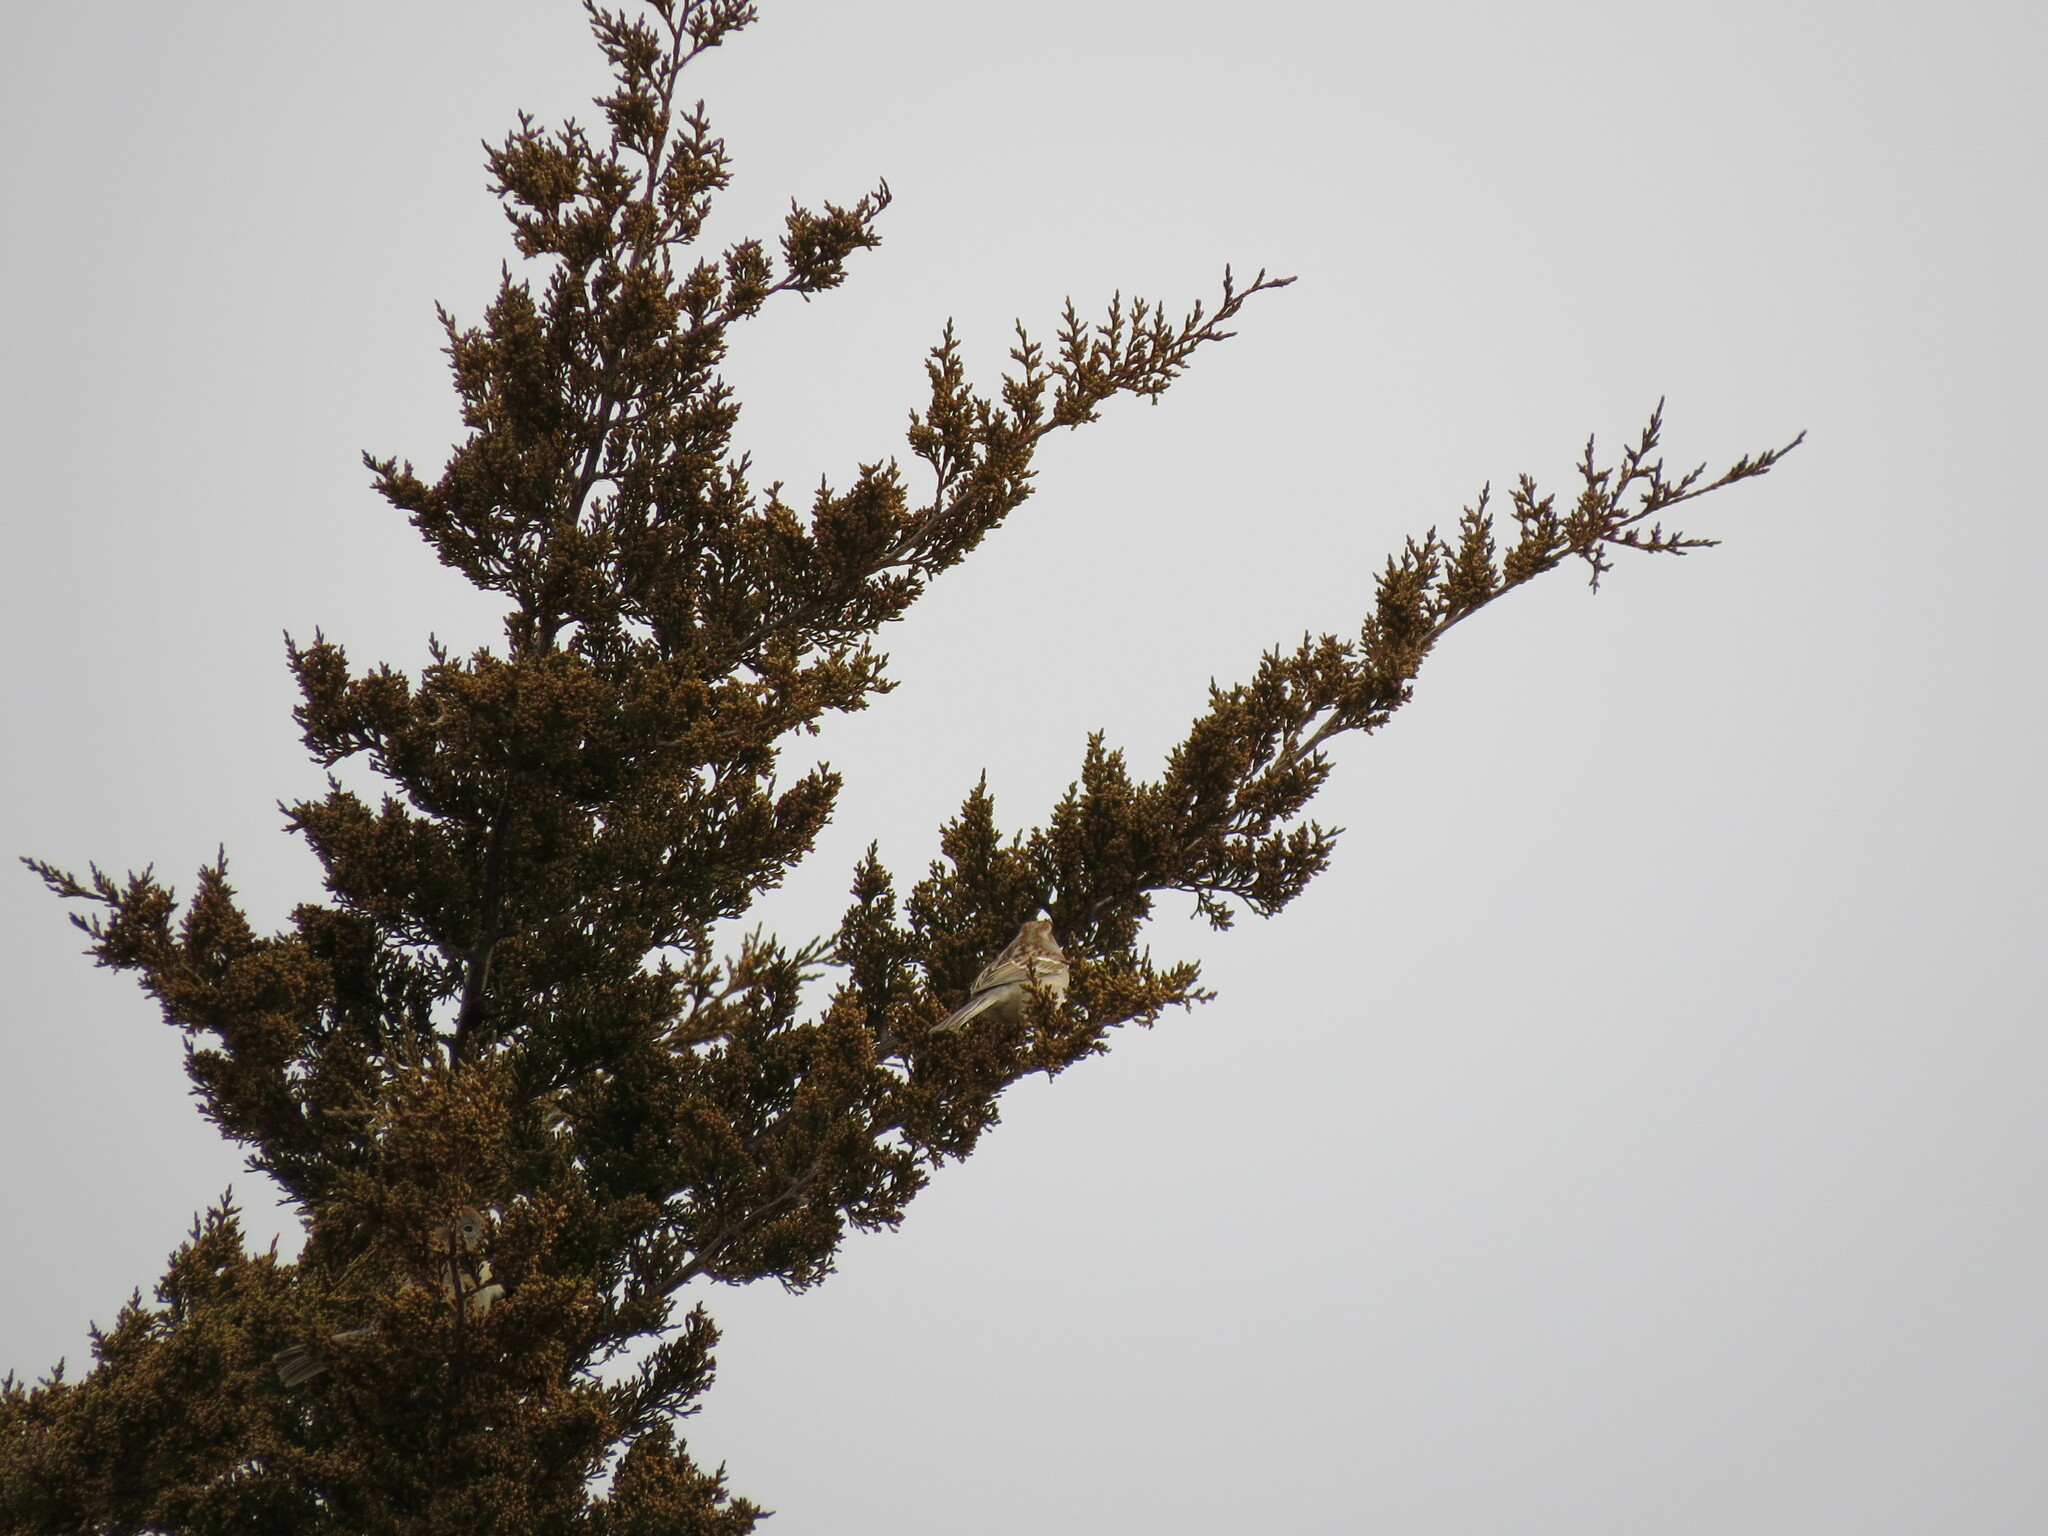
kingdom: Animalia
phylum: Chordata
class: Aves
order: Passeriformes
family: Passerellidae
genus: Spizella
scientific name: Spizella pusilla
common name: Field sparrow
